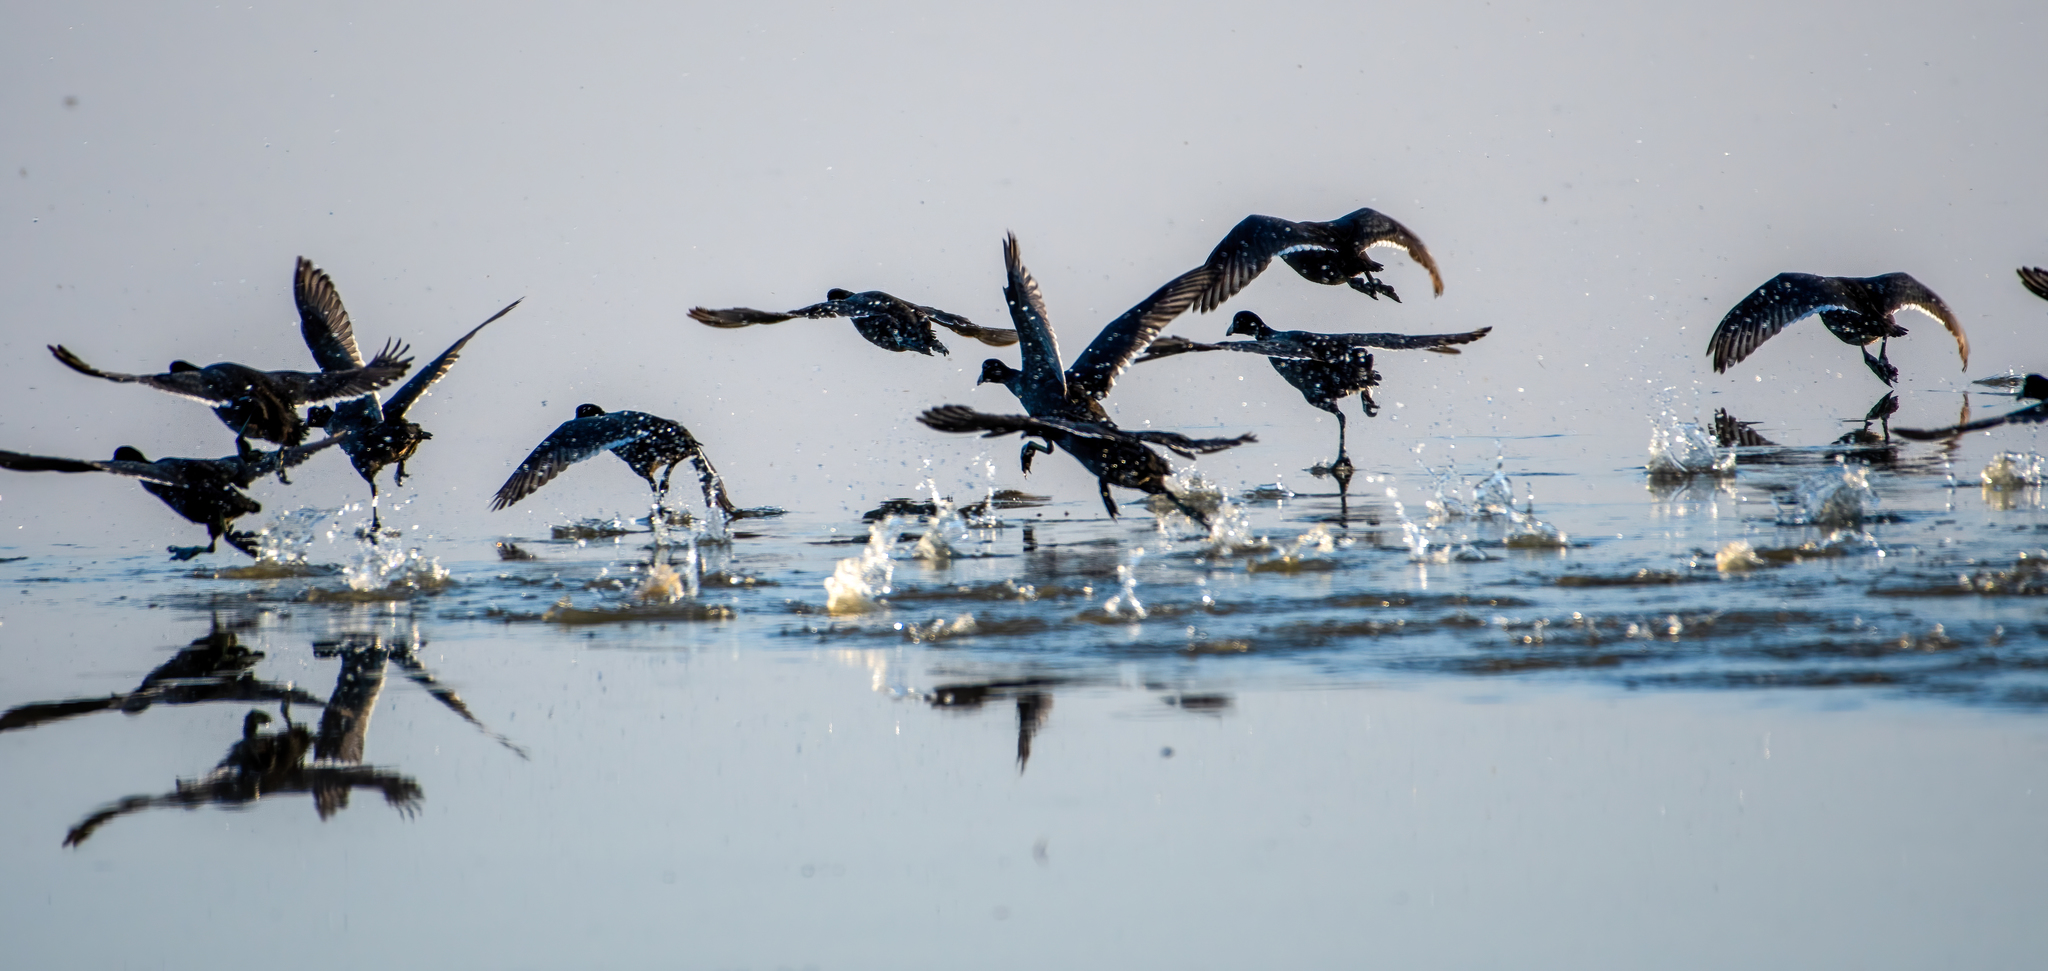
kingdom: Animalia
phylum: Chordata
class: Aves
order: Gruiformes
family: Rallidae
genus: Fulica
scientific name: Fulica americana
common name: American coot
